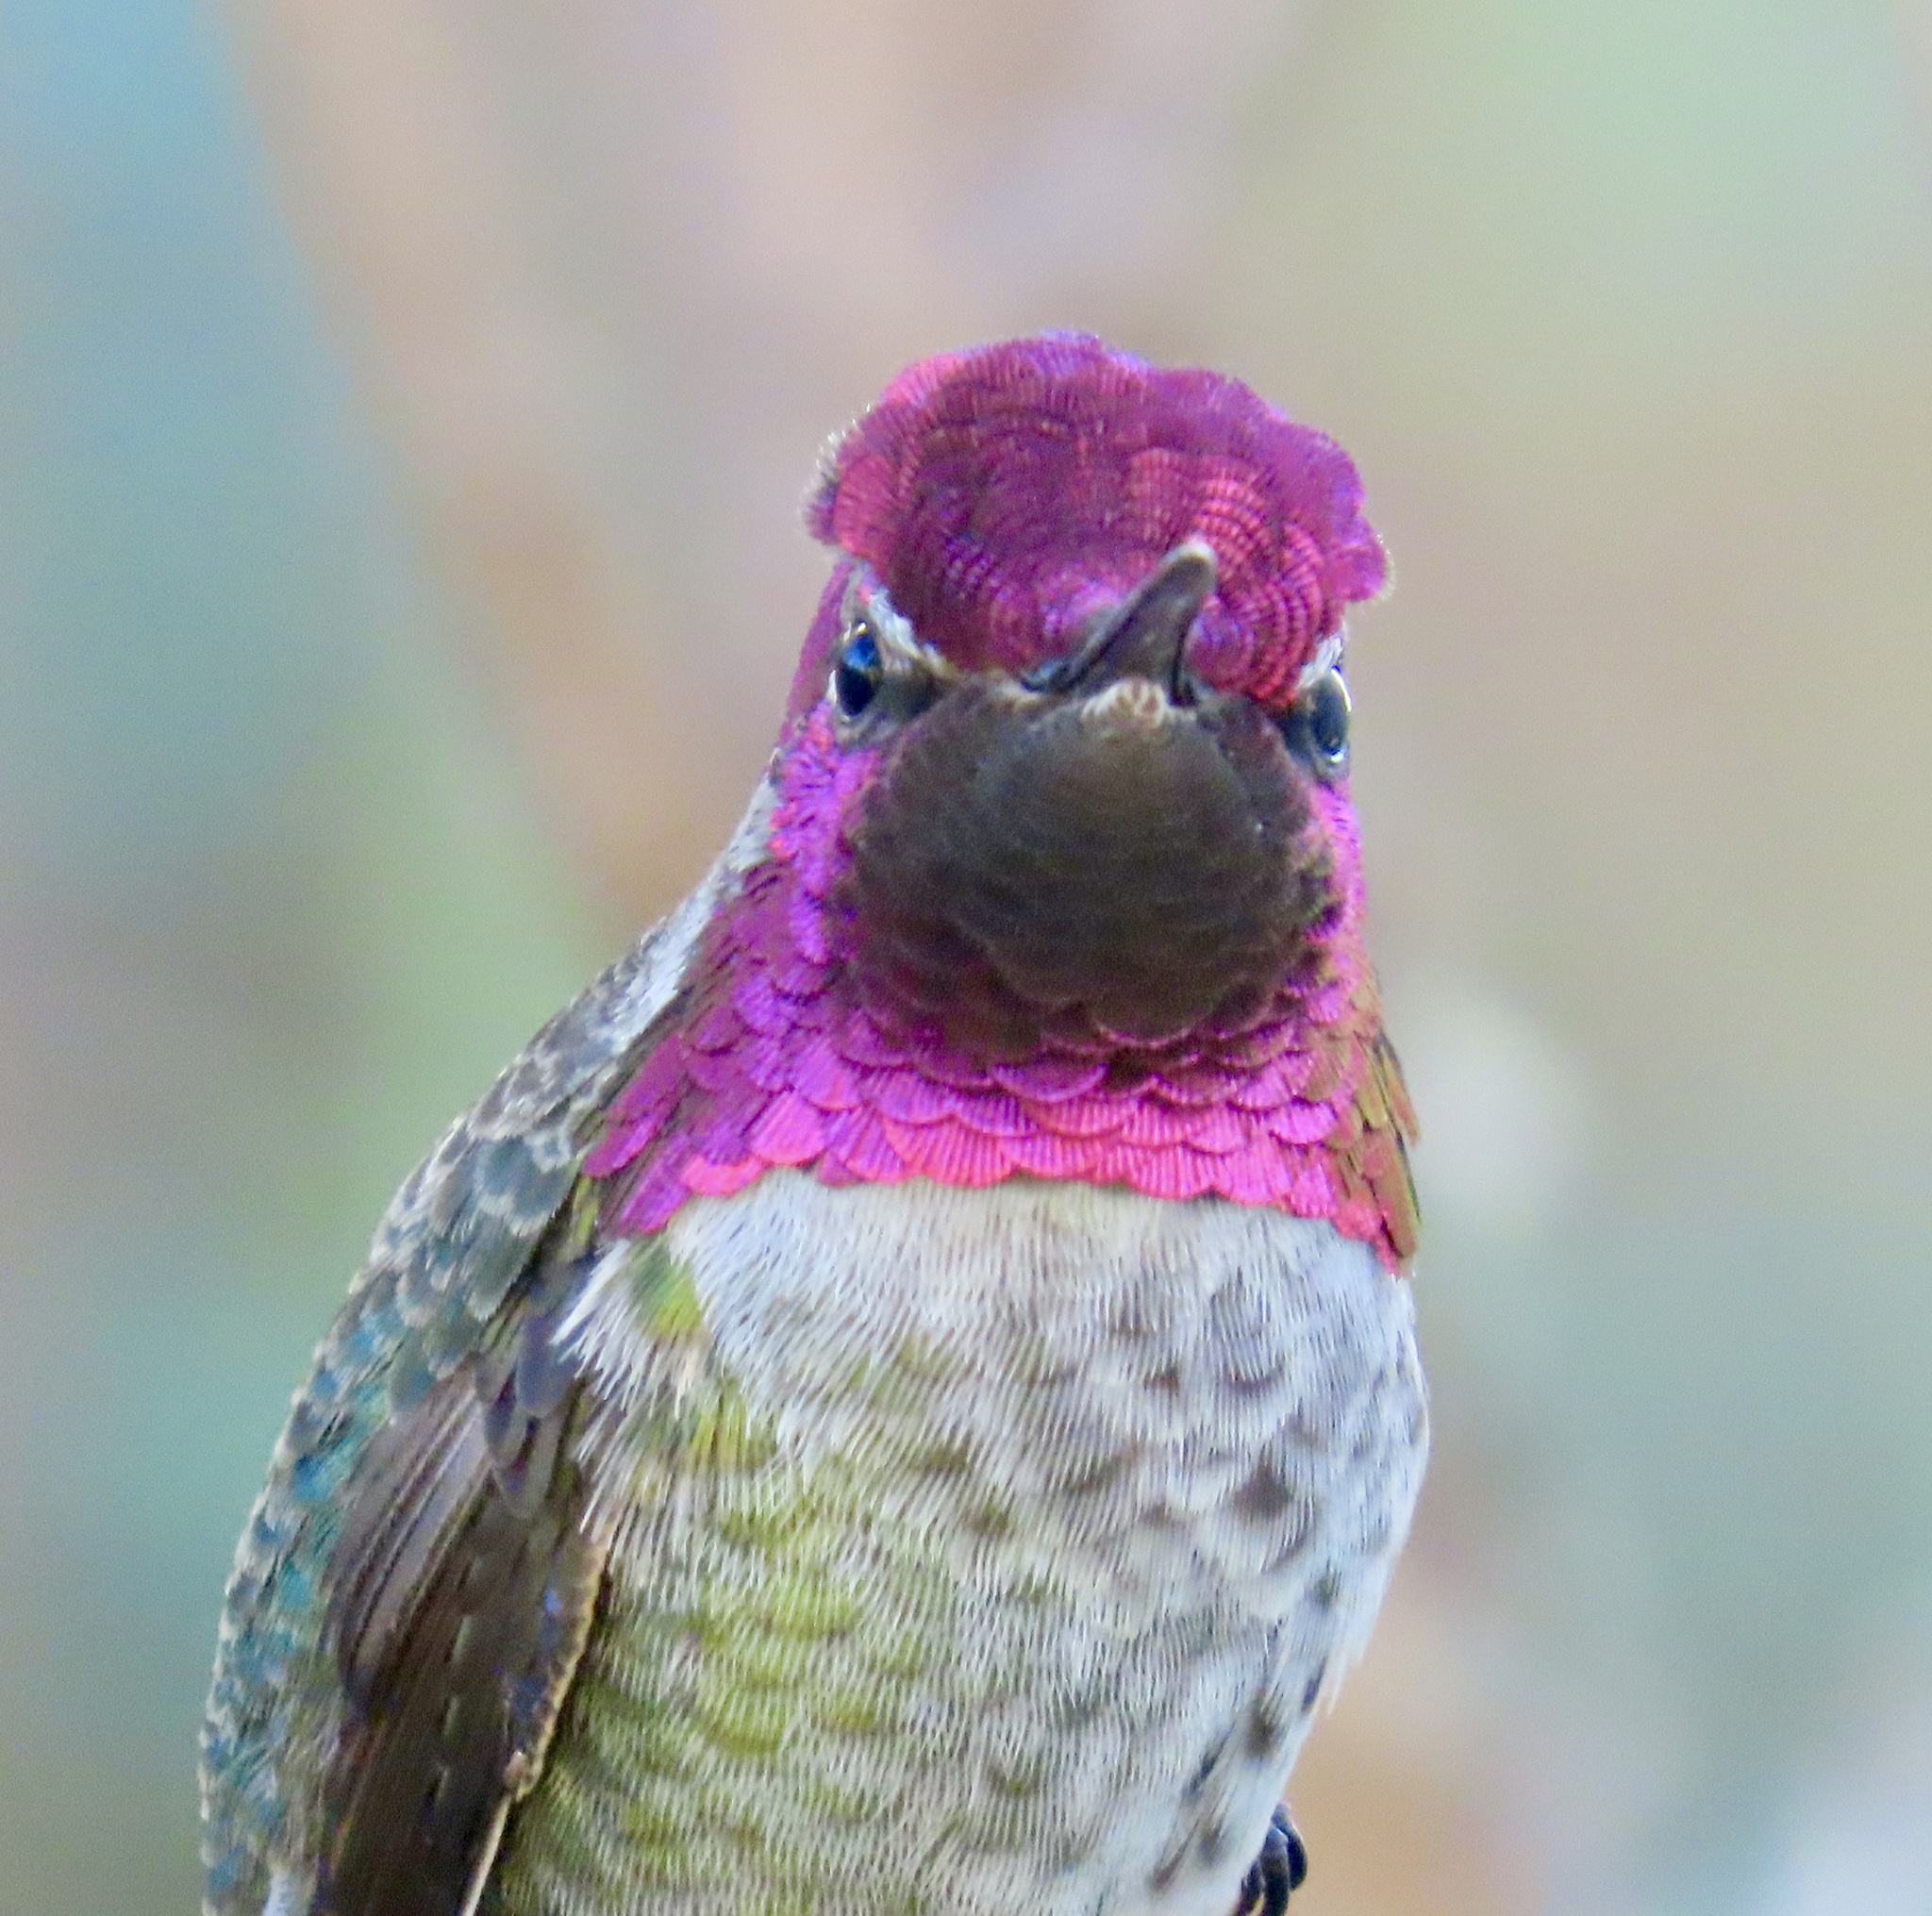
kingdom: Animalia
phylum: Chordata
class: Aves
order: Apodiformes
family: Trochilidae
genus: Calypte
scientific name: Calypte anna
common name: Anna's hummingbird
